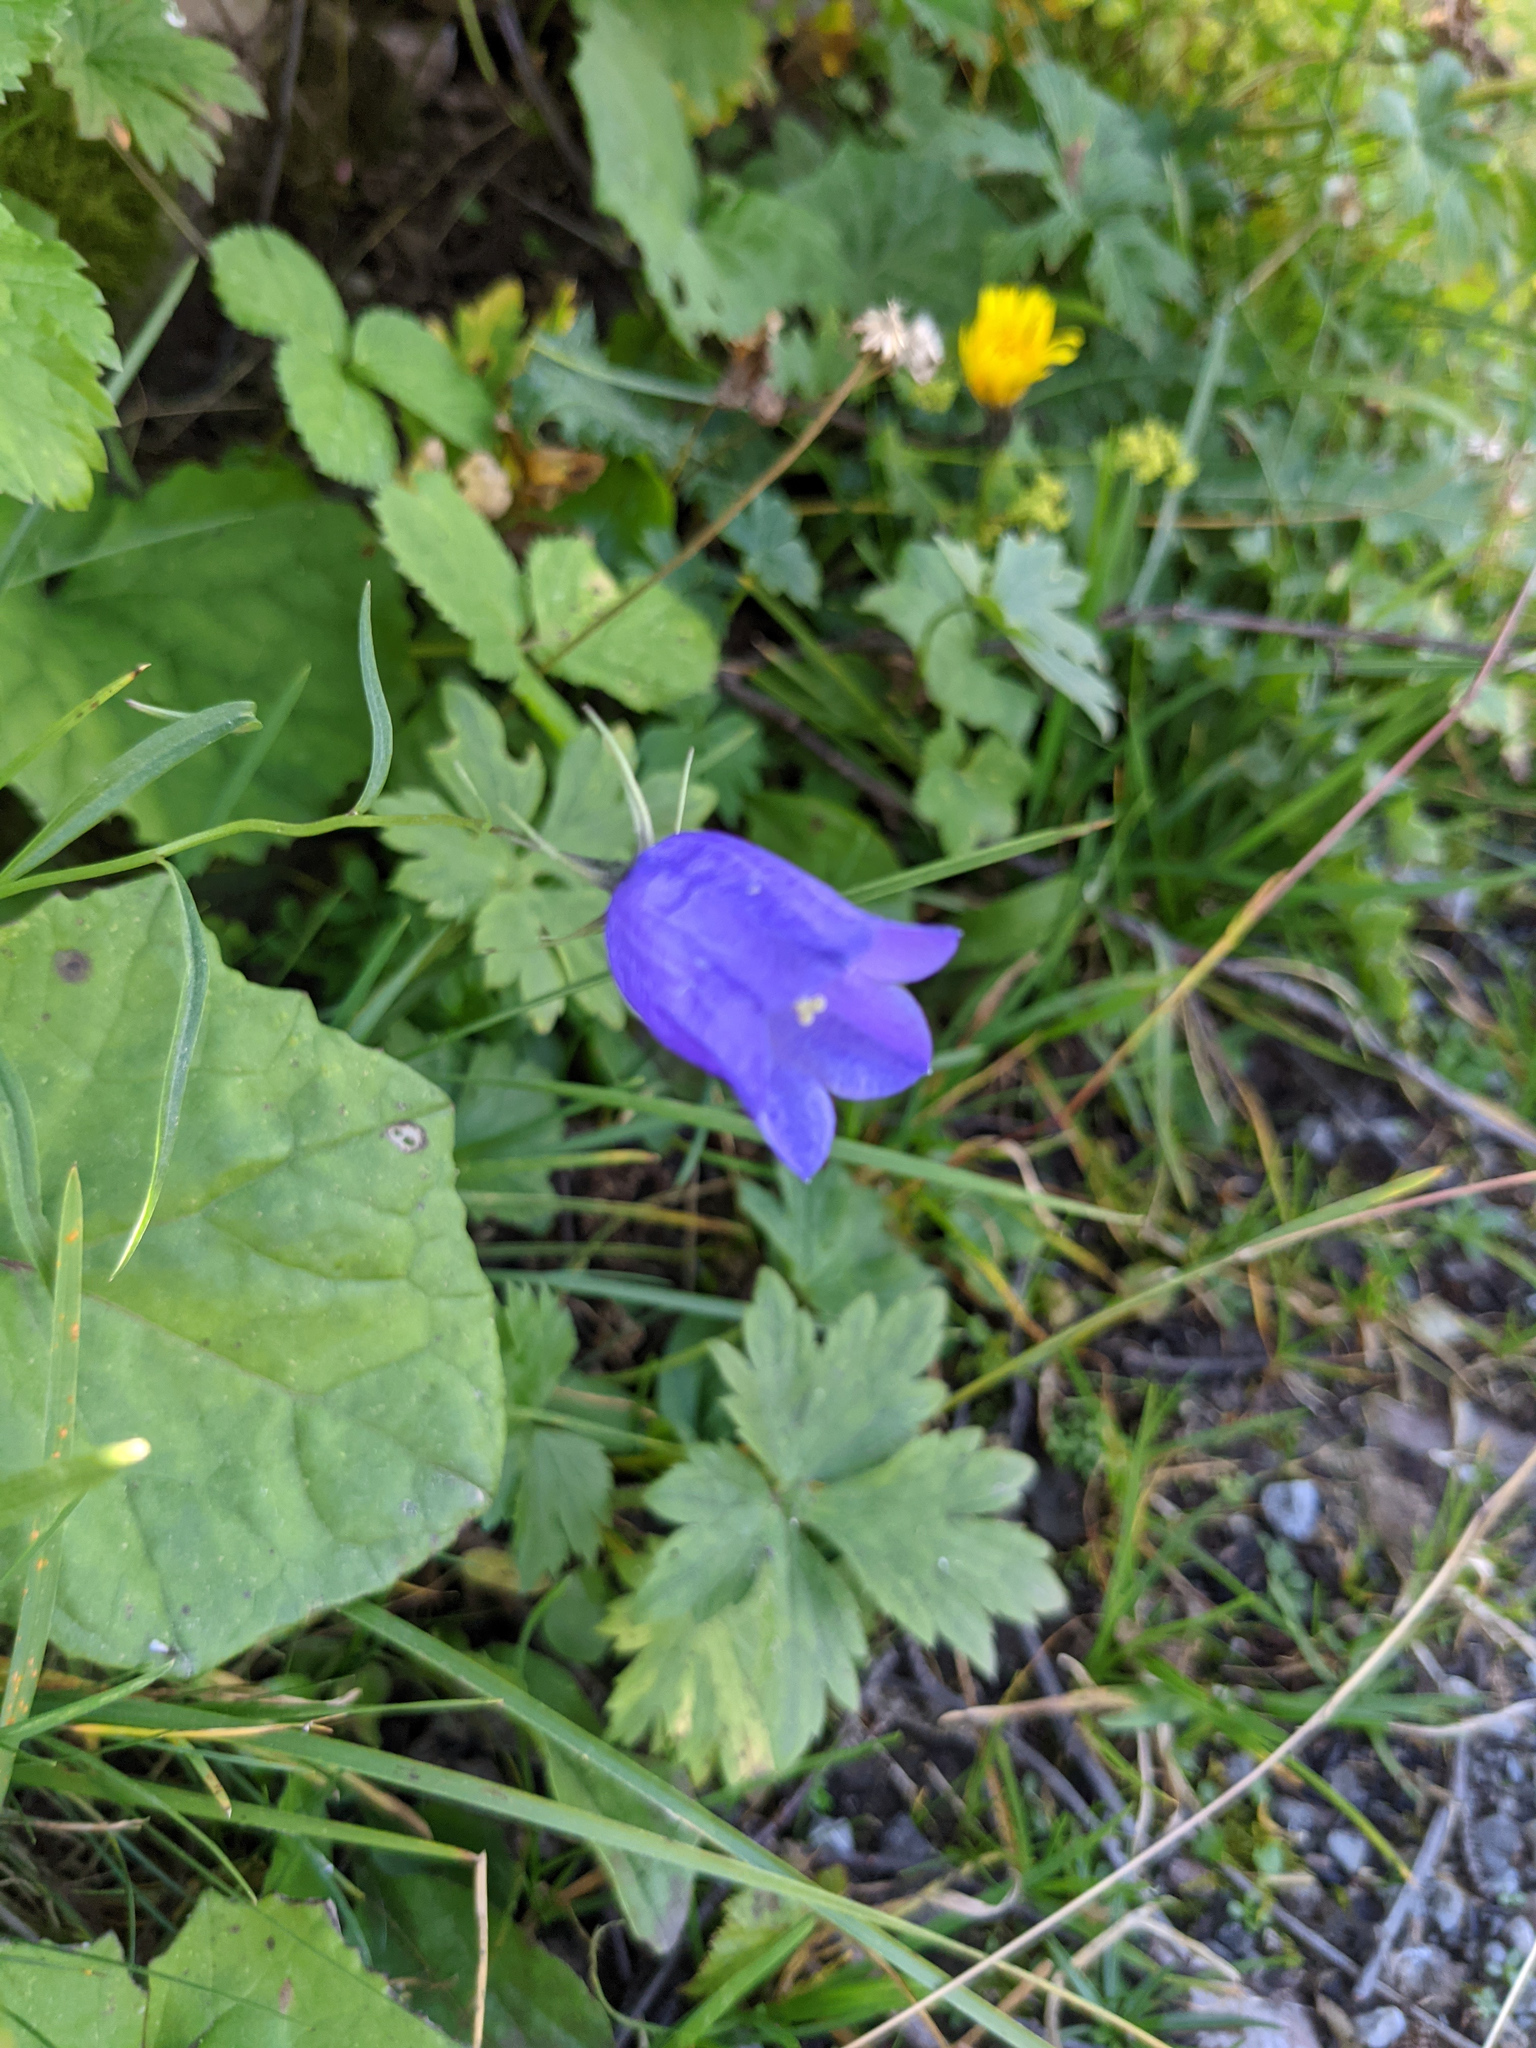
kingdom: Plantae
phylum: Tracheophyta
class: Magnoliopsida
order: Asterales
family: Campanulaceae
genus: Campanula
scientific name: Campanula scheuchzeri
